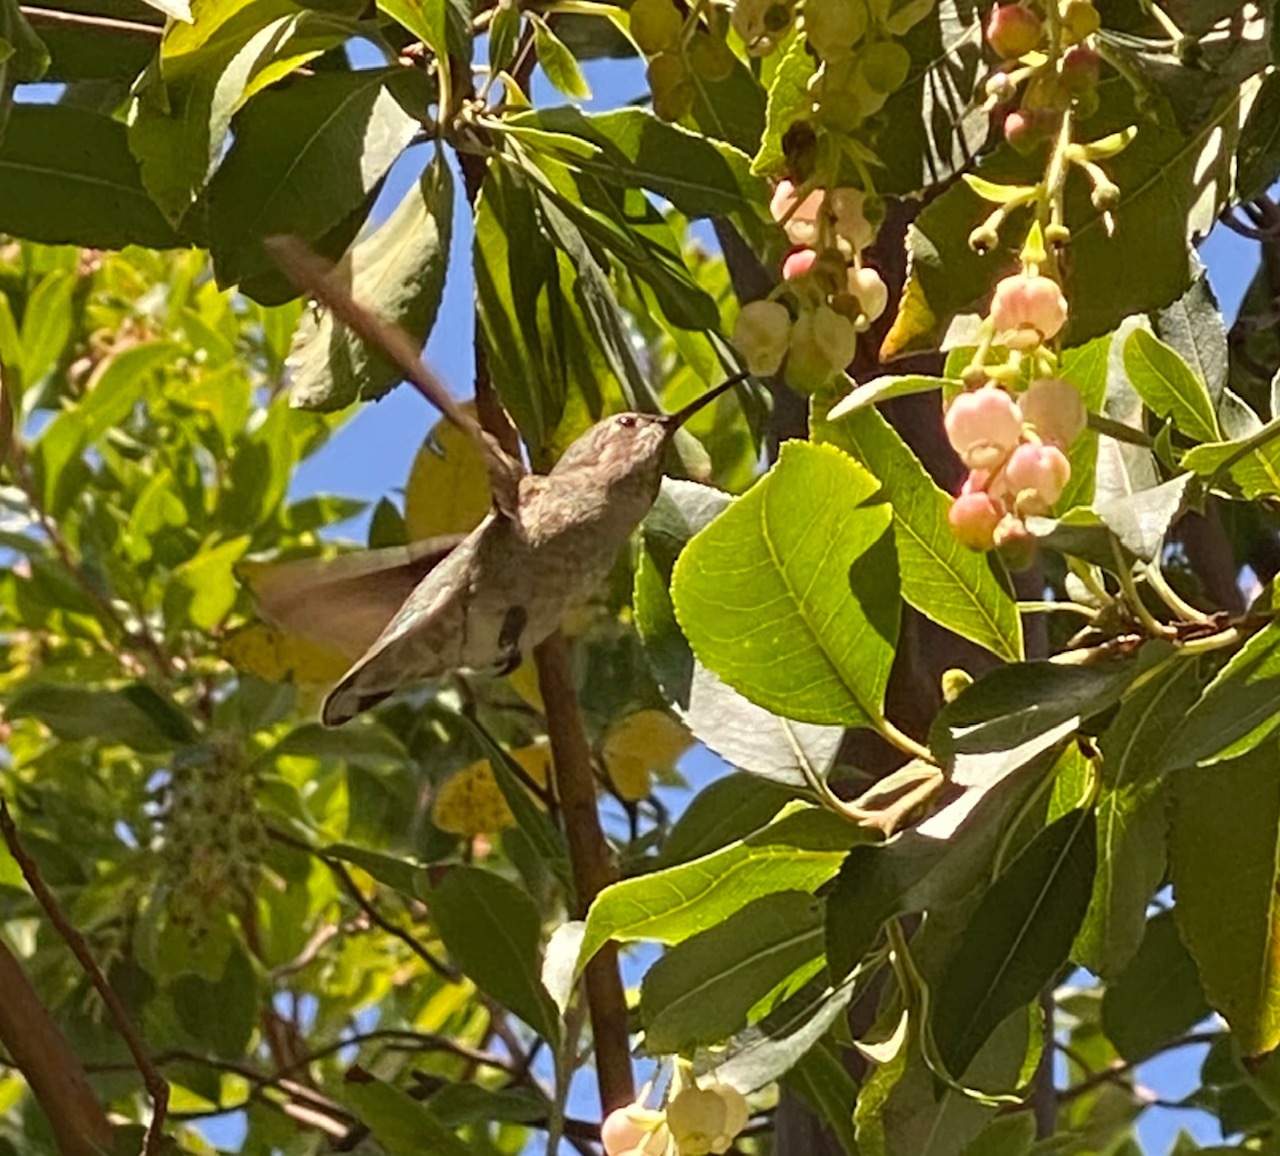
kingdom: Animalia
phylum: Chordata
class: Aves
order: Apodiformes
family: Trochilidae
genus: Calypte
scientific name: Calypte anna
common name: Anna's hummingbird
